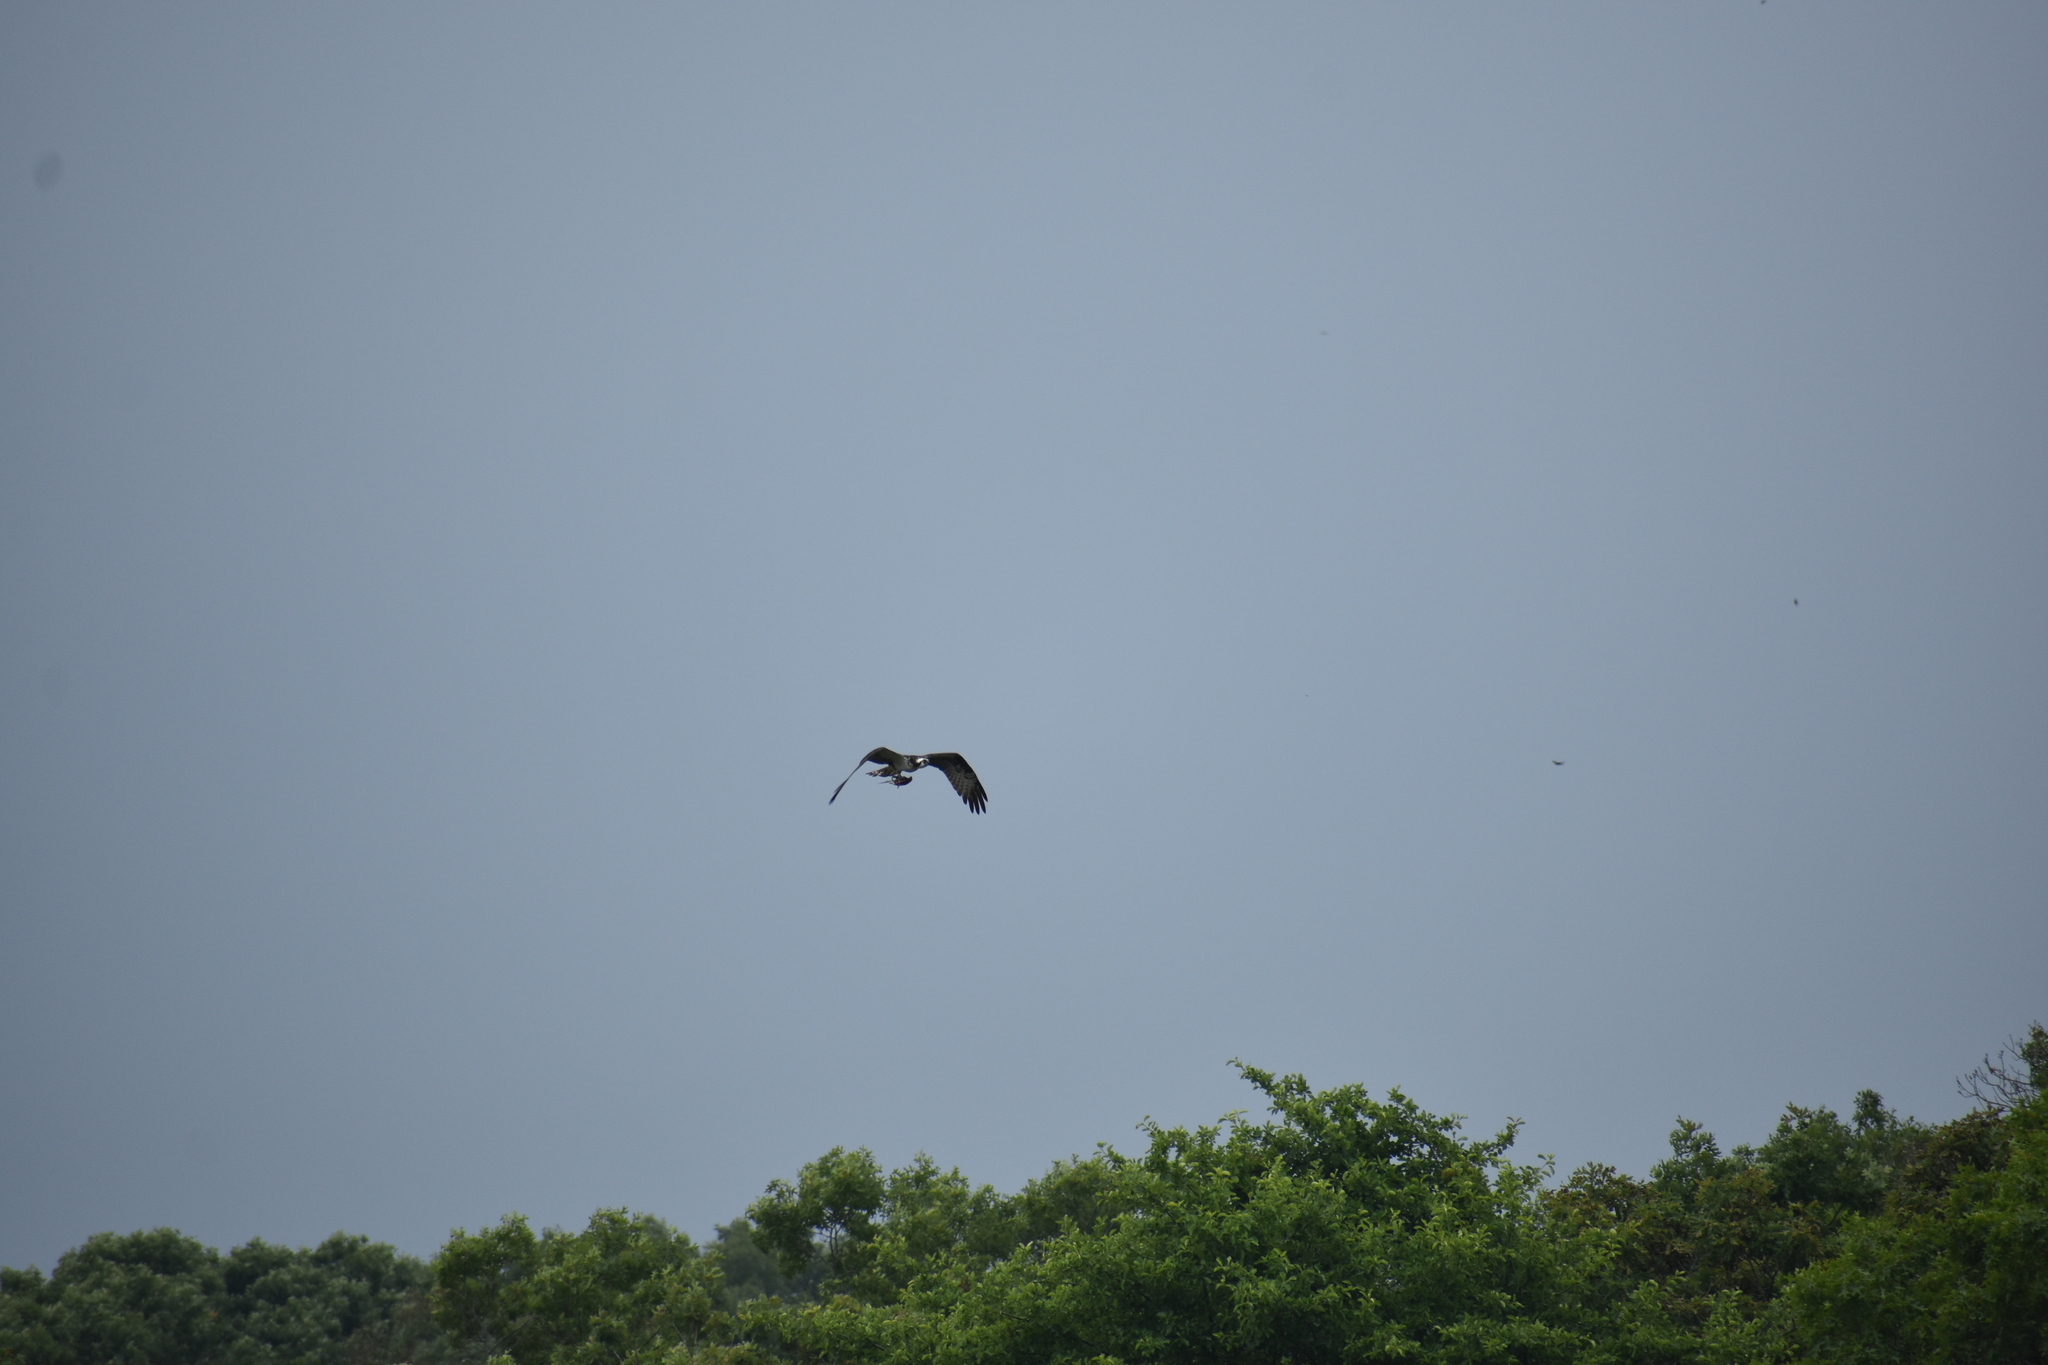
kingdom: Animalia
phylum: Chordata
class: Aves
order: Accipitriformes
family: Pandionidae
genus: Pandion
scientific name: Pandion haliaetus
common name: Osprey
